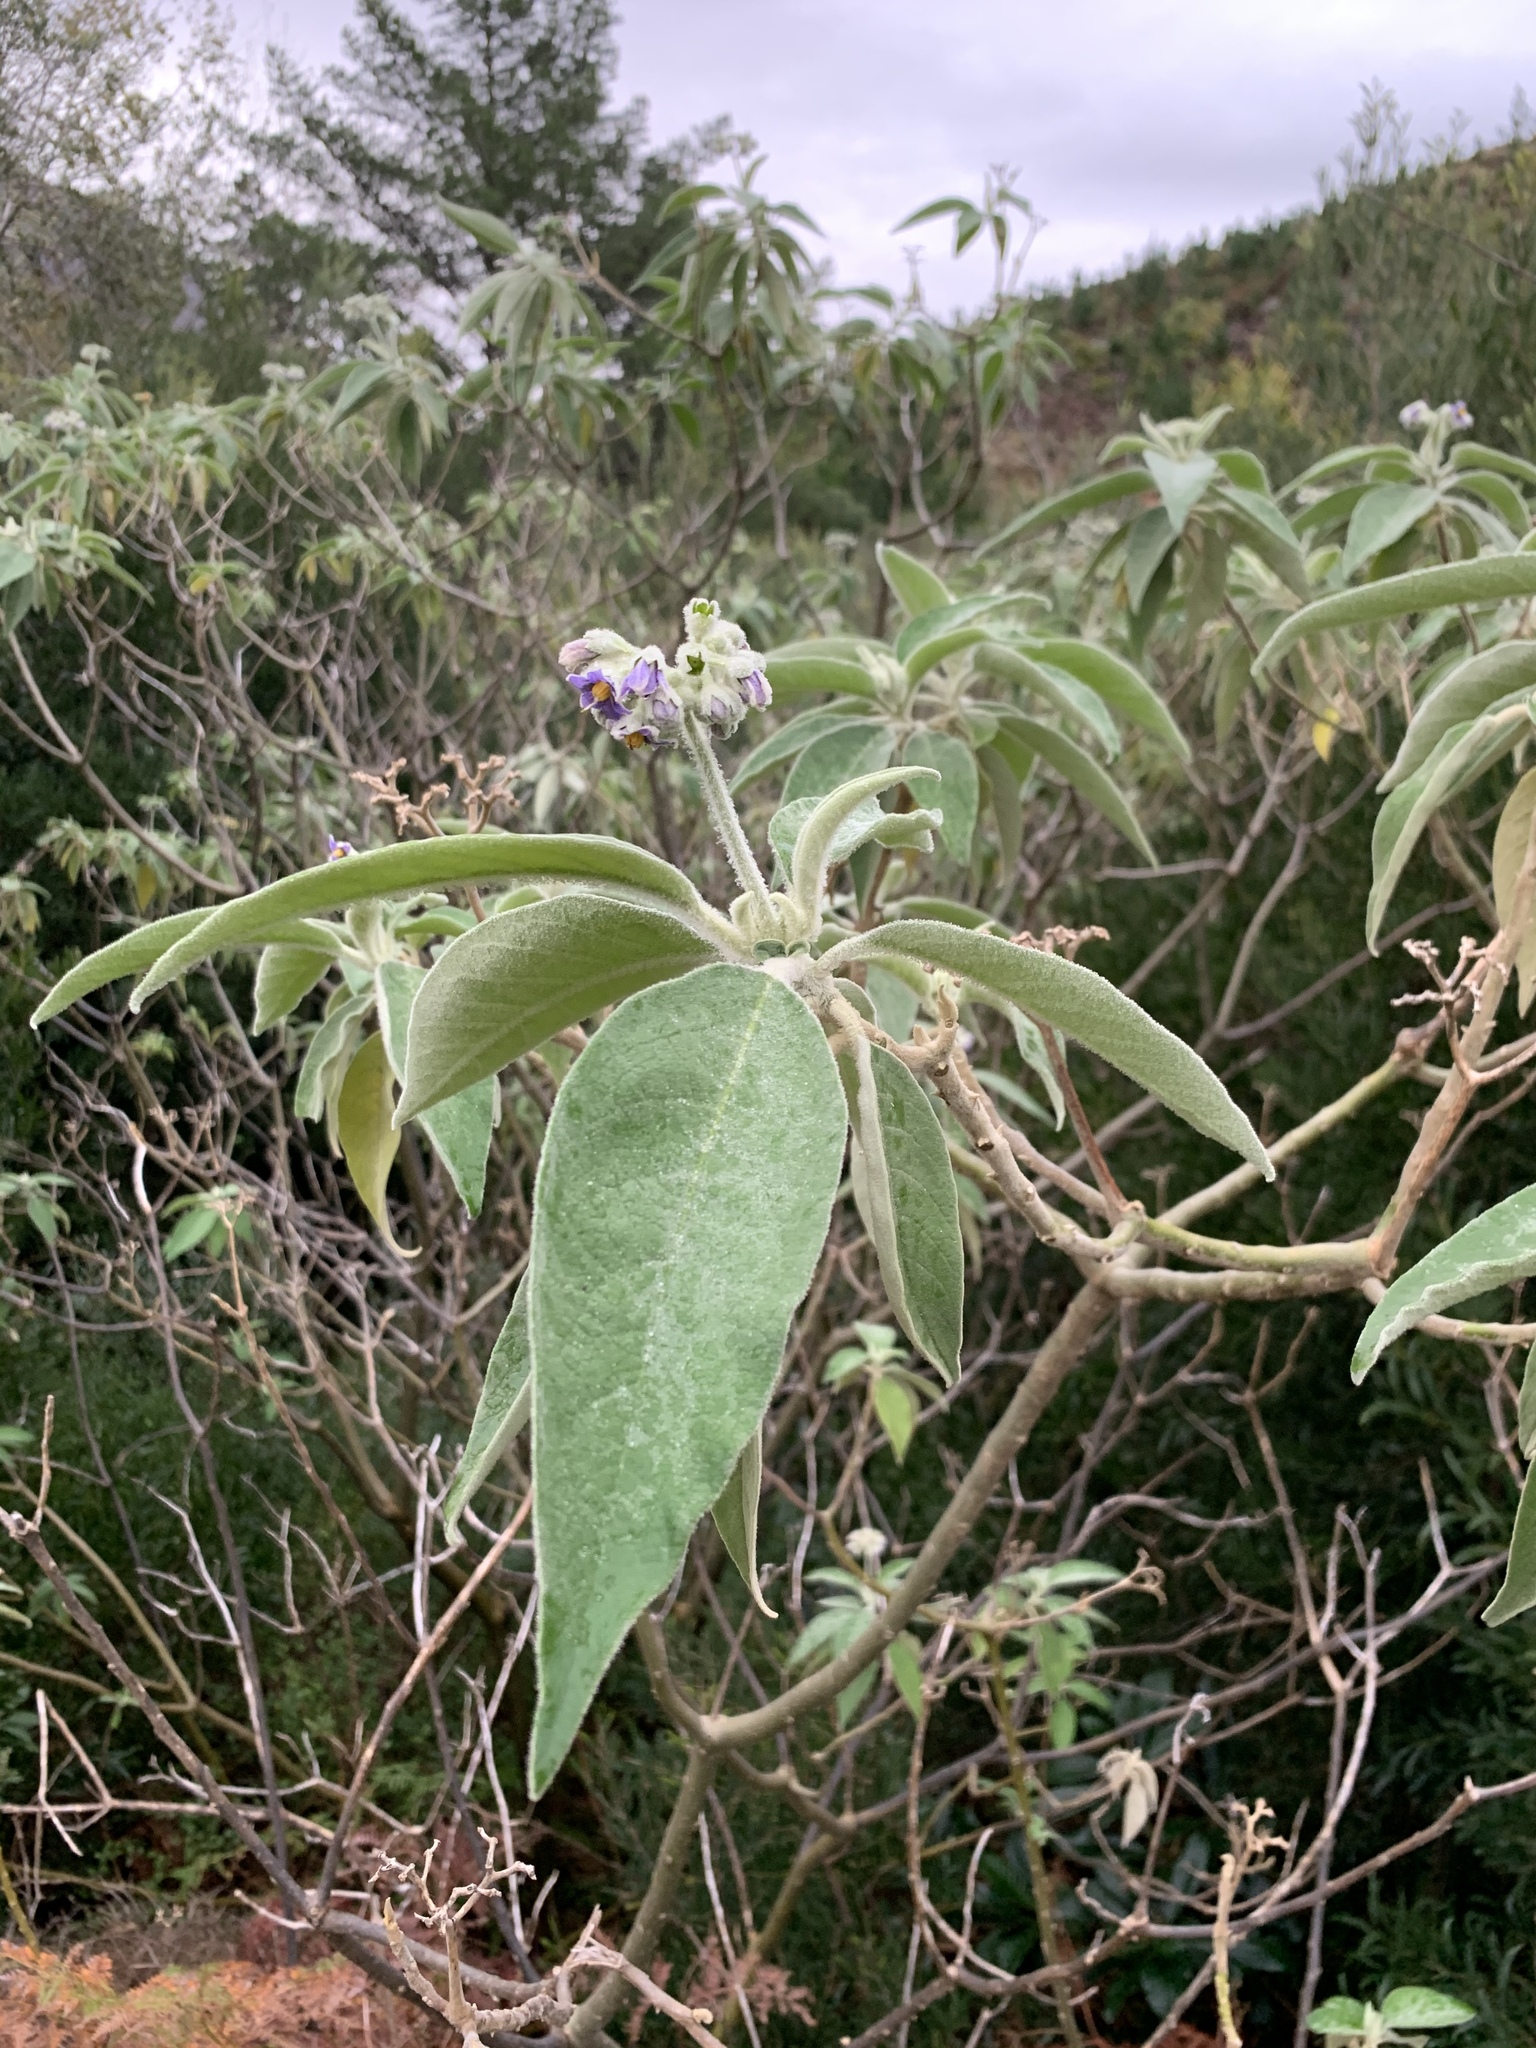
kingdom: Plantae
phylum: Tracheophyta
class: Magnoliopsida
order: Solanales
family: Solanaceae
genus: Solanum
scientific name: Solanum mauritianum
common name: Earleaf nightshade
